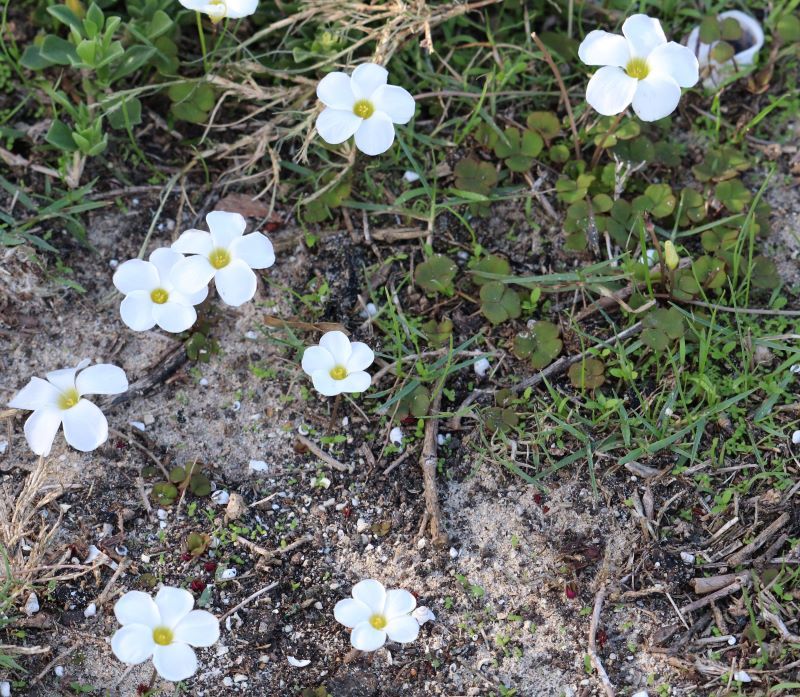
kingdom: Plantae
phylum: Tracheophyta
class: Magnoliopsida
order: Oxalidales
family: Oxalidaceae
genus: Oxalis
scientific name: Oxalis depressa
